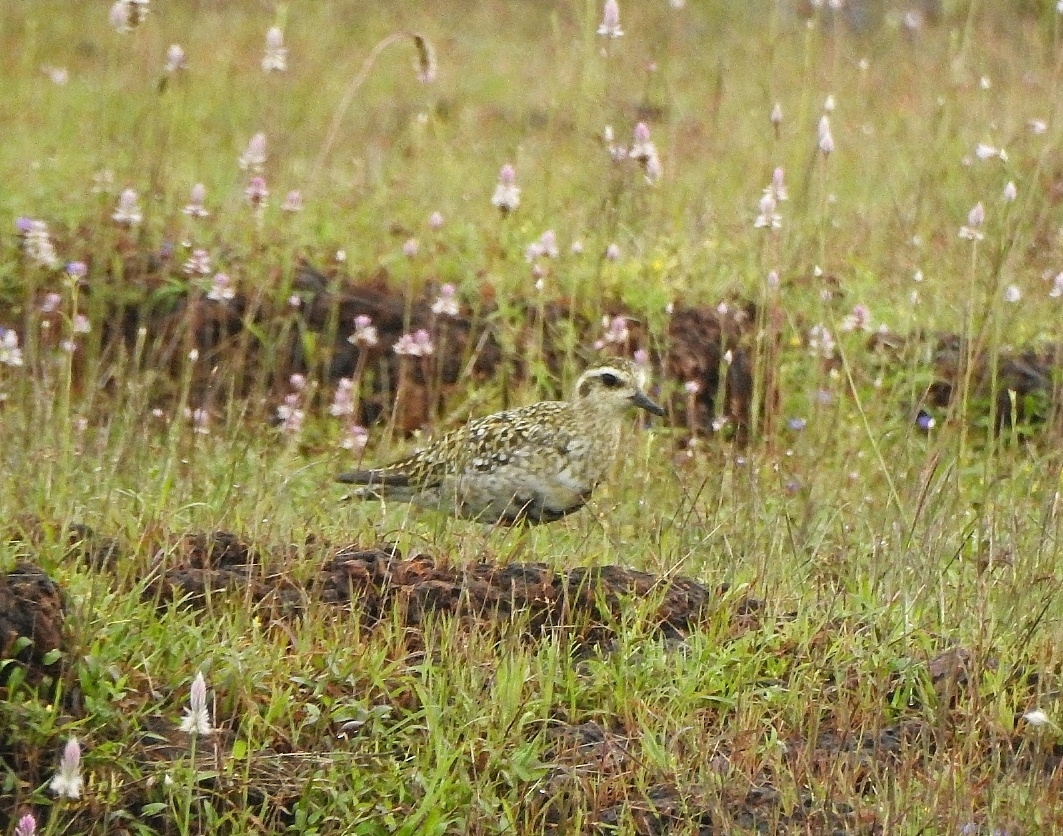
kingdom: Animalia
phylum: Chordata
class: Aves
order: Charadriiformes
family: Charadriidae
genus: Pluvialis
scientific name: Pluvialis fulva
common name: Pacific golden plover
